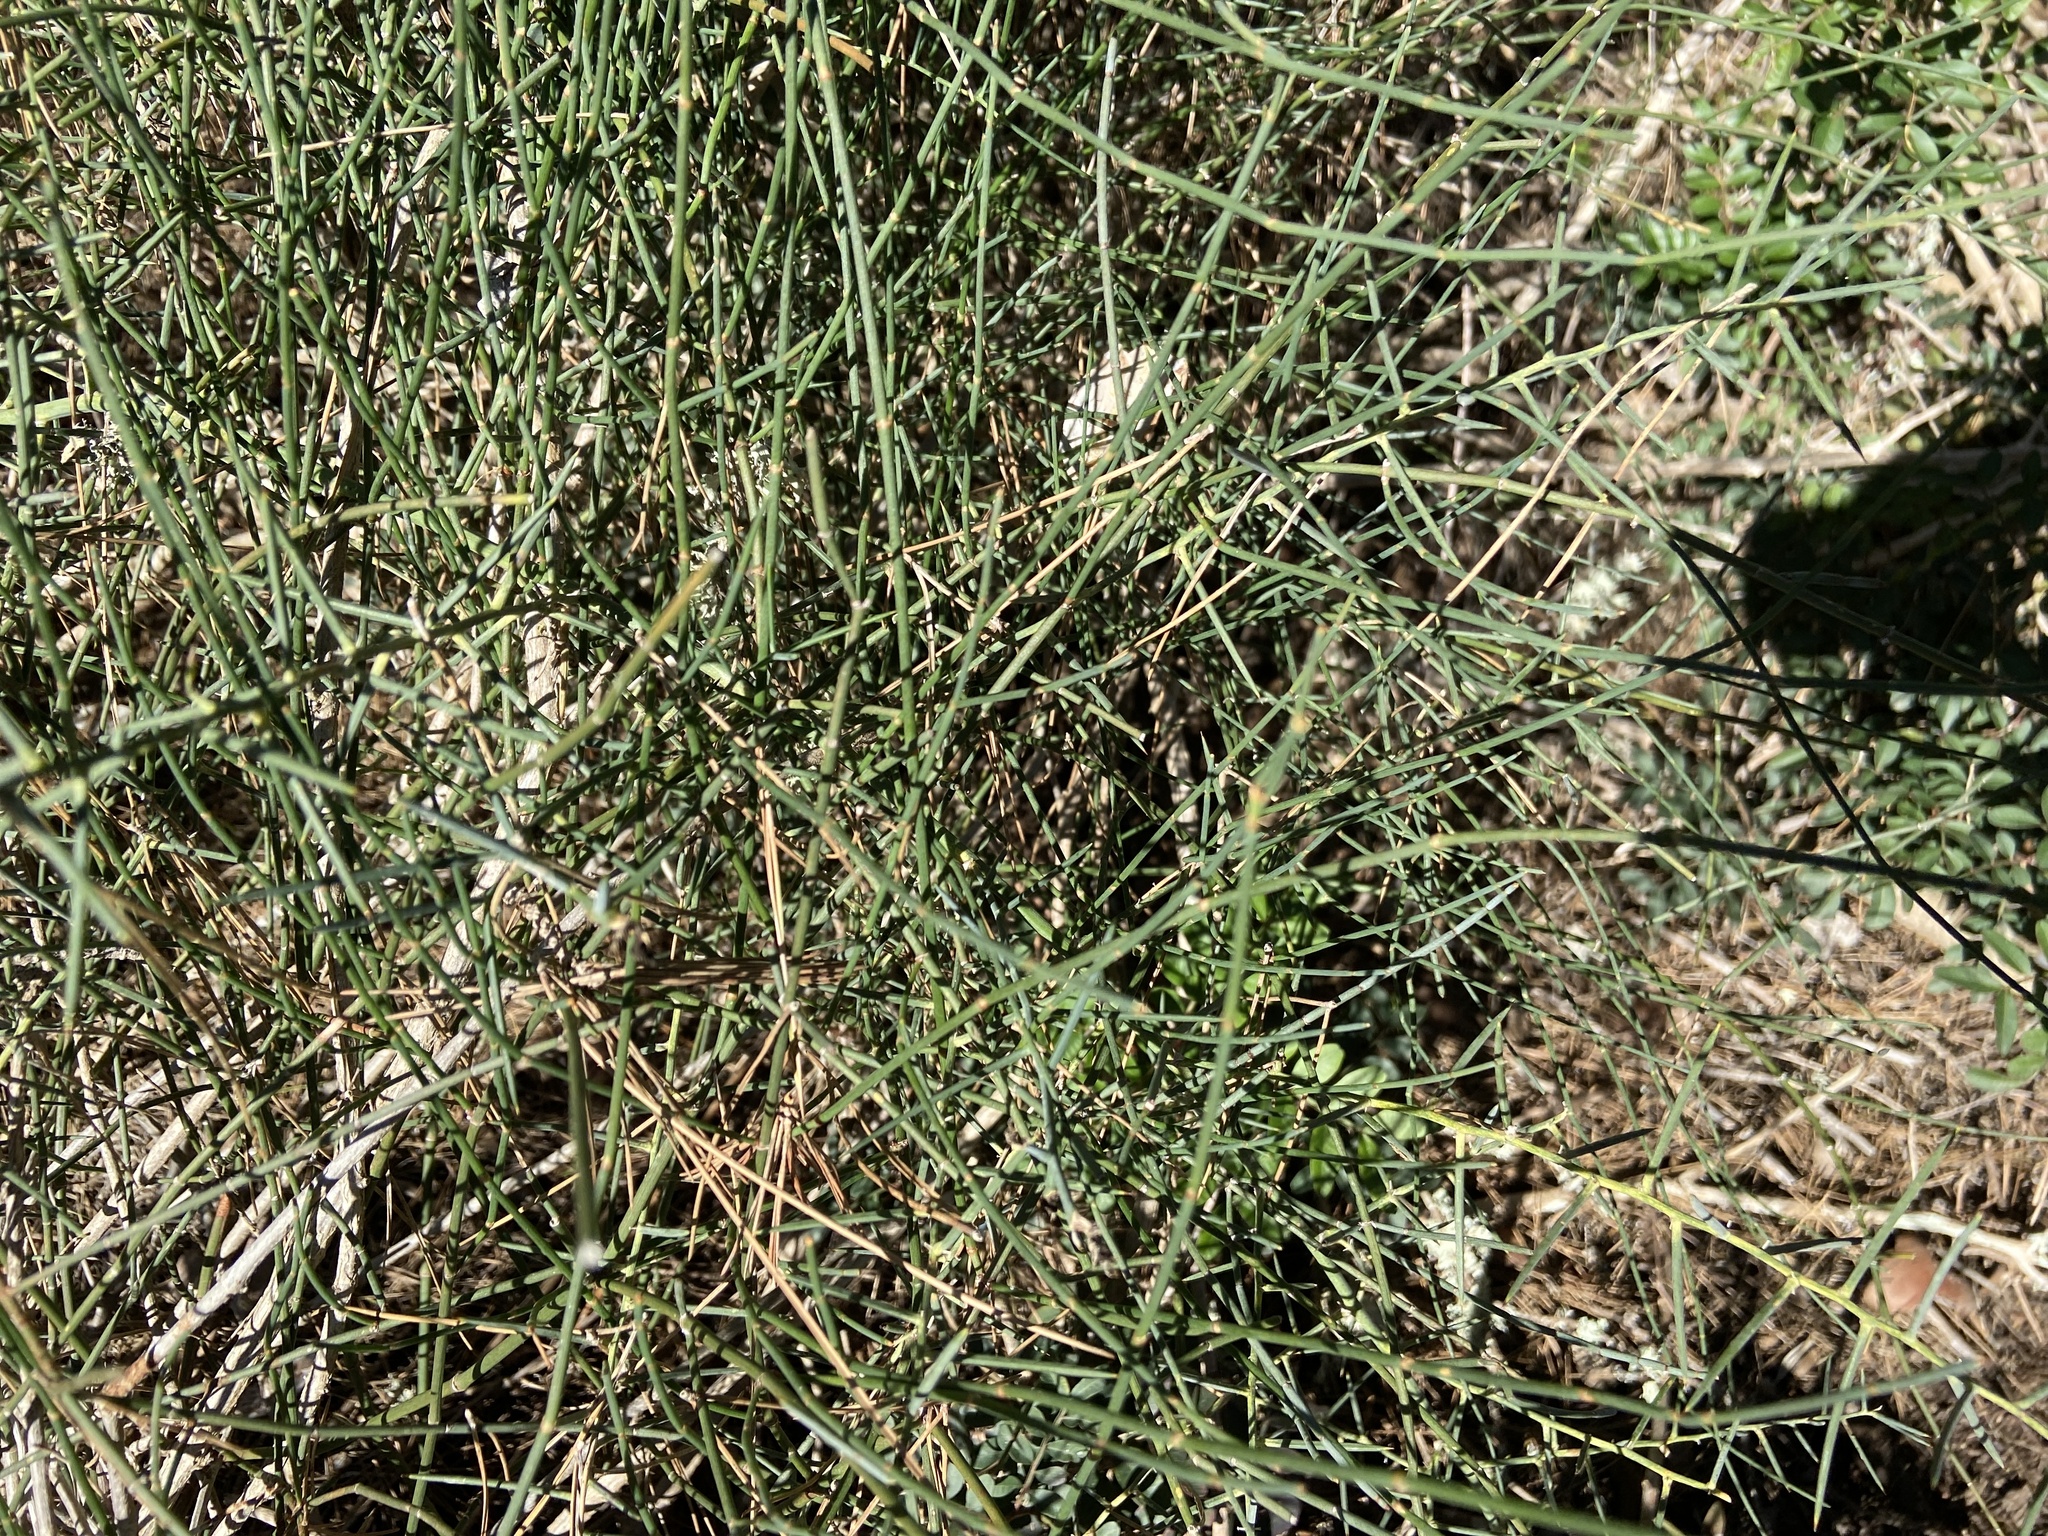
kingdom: Plantae
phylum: Tracheophyta
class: Gnetopsida
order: Ephedrales
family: Ephedraceae
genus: Ephedra
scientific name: Ephedra fragilis
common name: Joint pine
